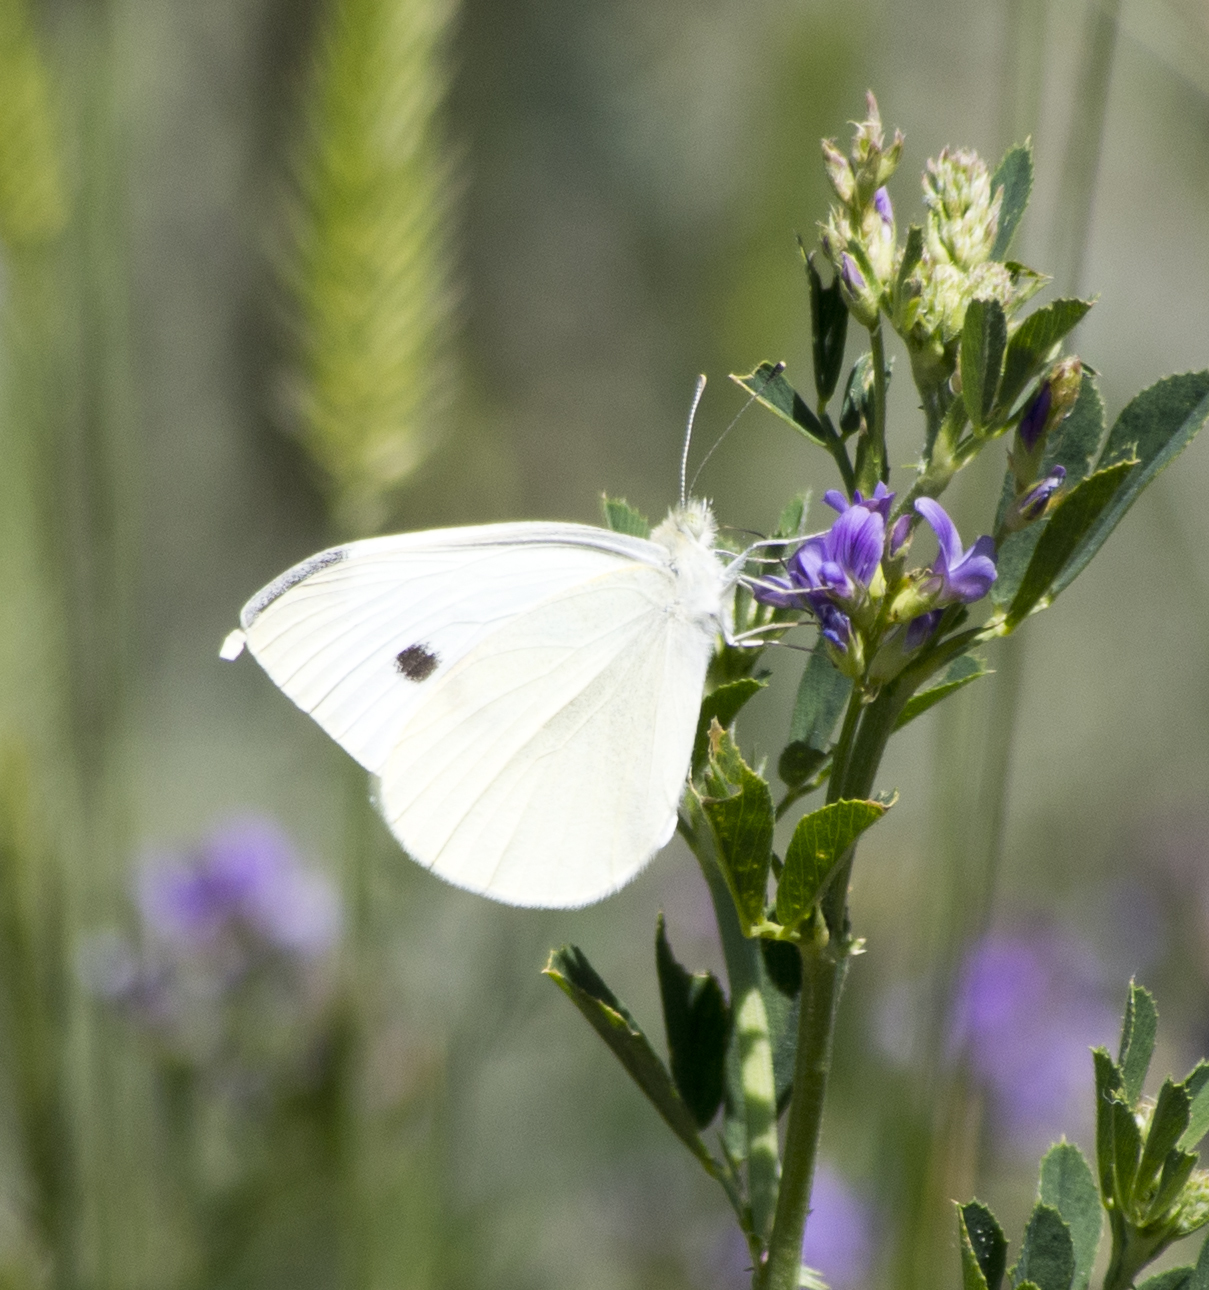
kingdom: Animalia
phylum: Arthropoda
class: Insecta
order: Lepidoptera
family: Pieridae
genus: Pieris
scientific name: Pieris rapae
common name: Small white
